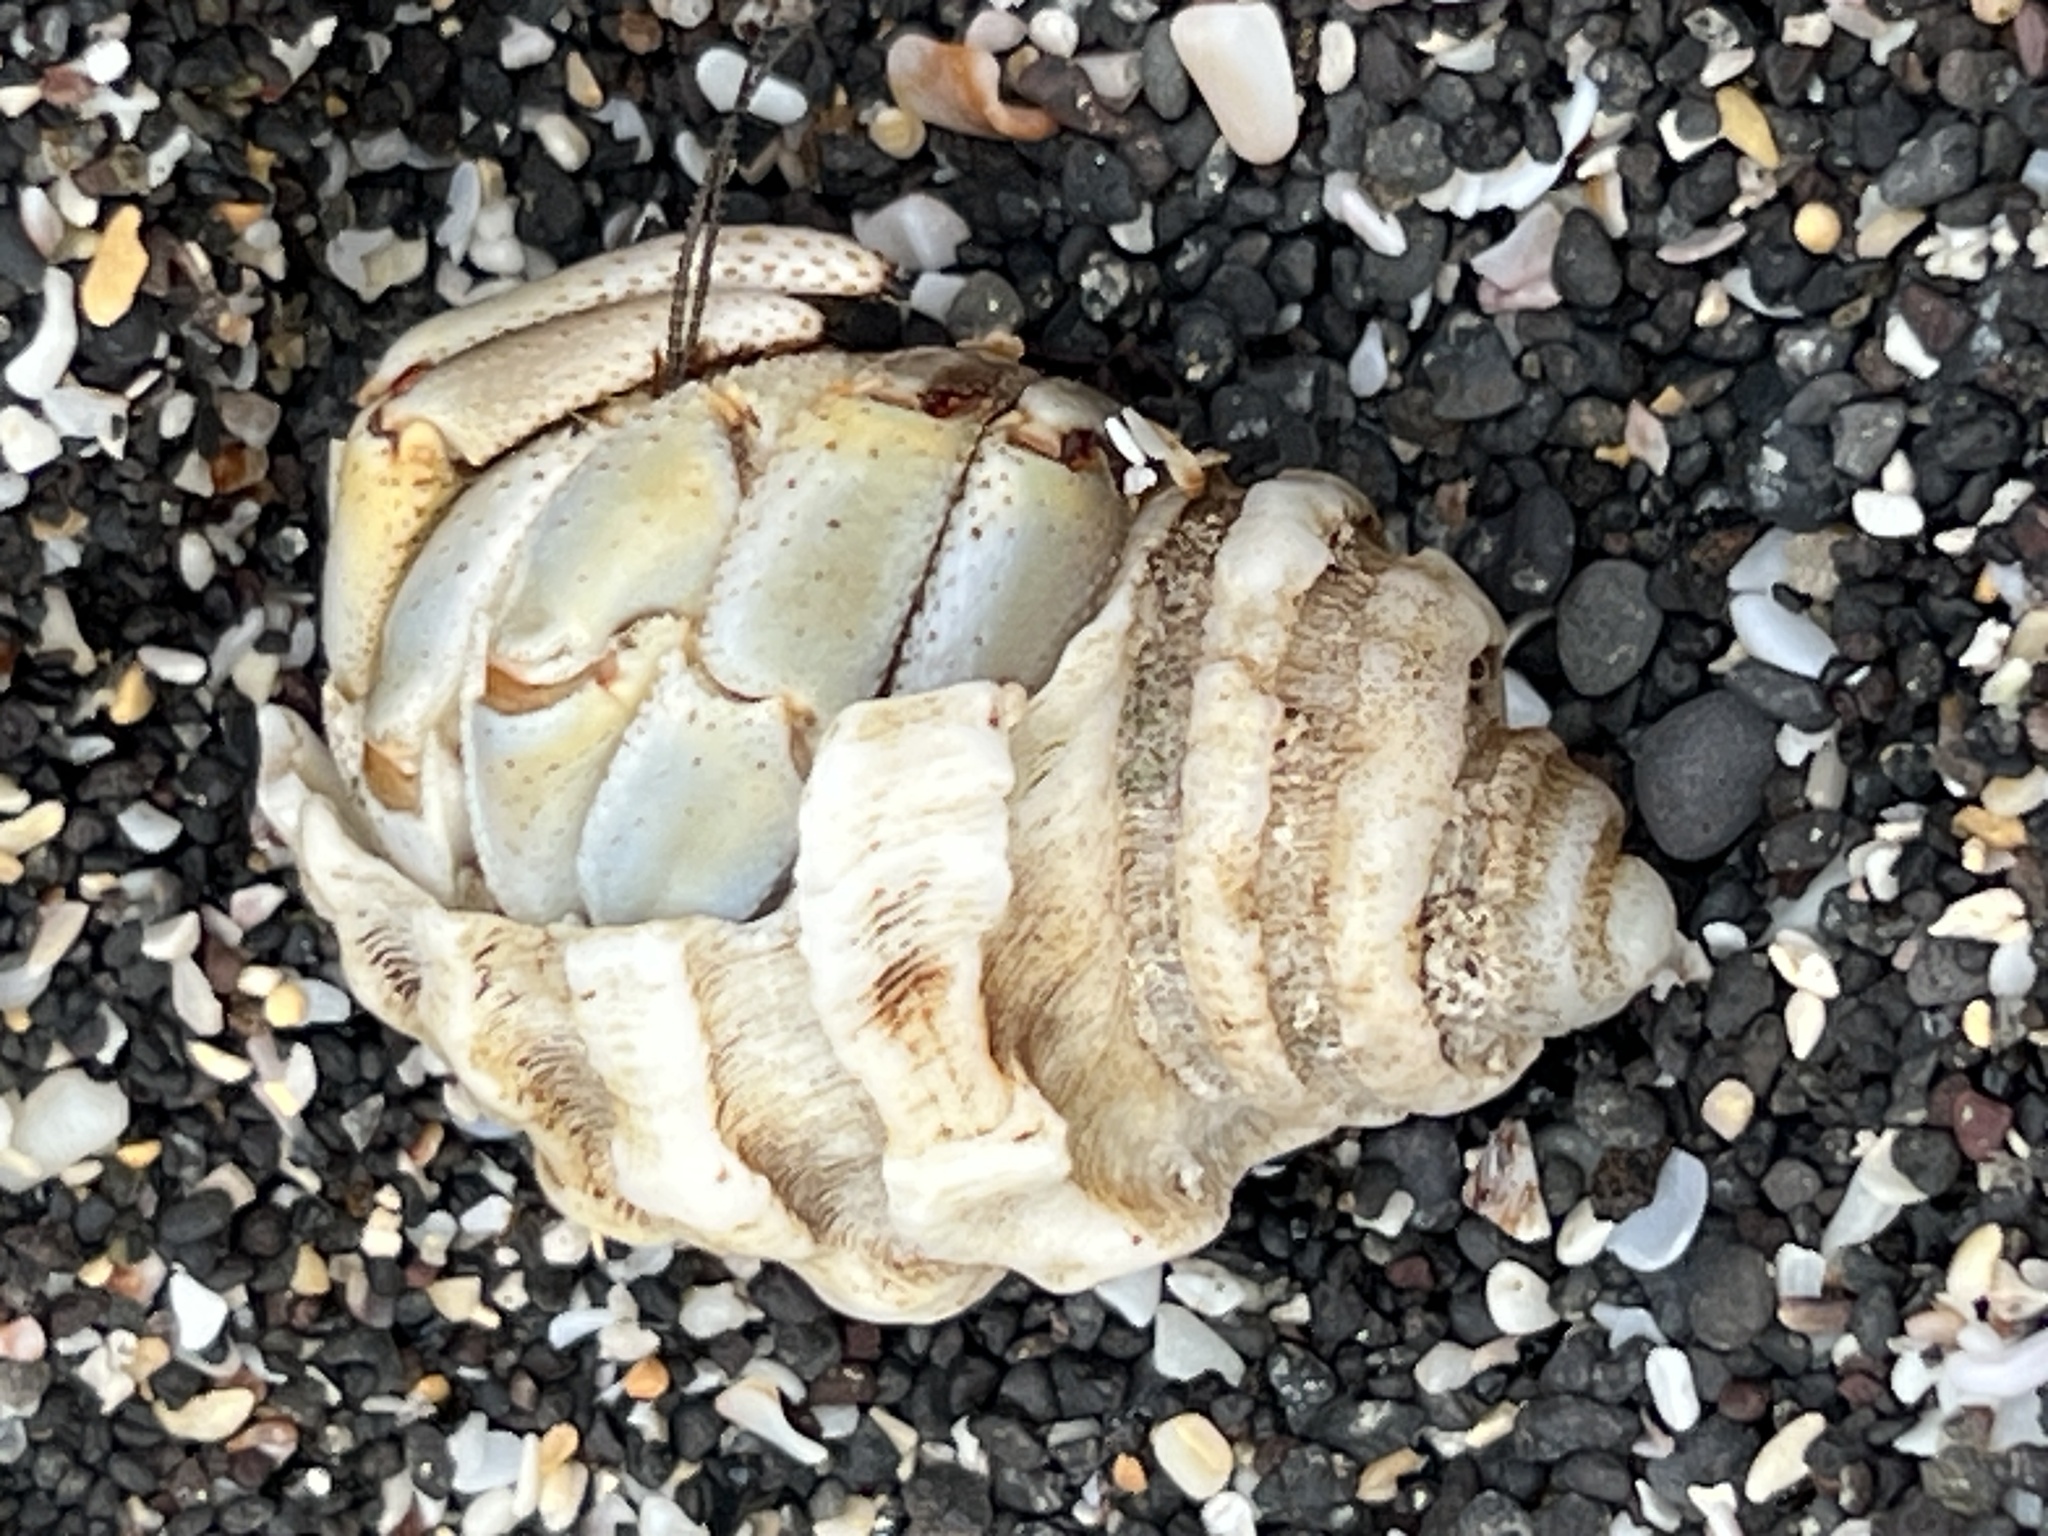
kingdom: Animalia
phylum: Arthropoda
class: Malacostraca
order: Decapoda
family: Coenobitidae
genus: Coenobita
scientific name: Coenobita compressus
